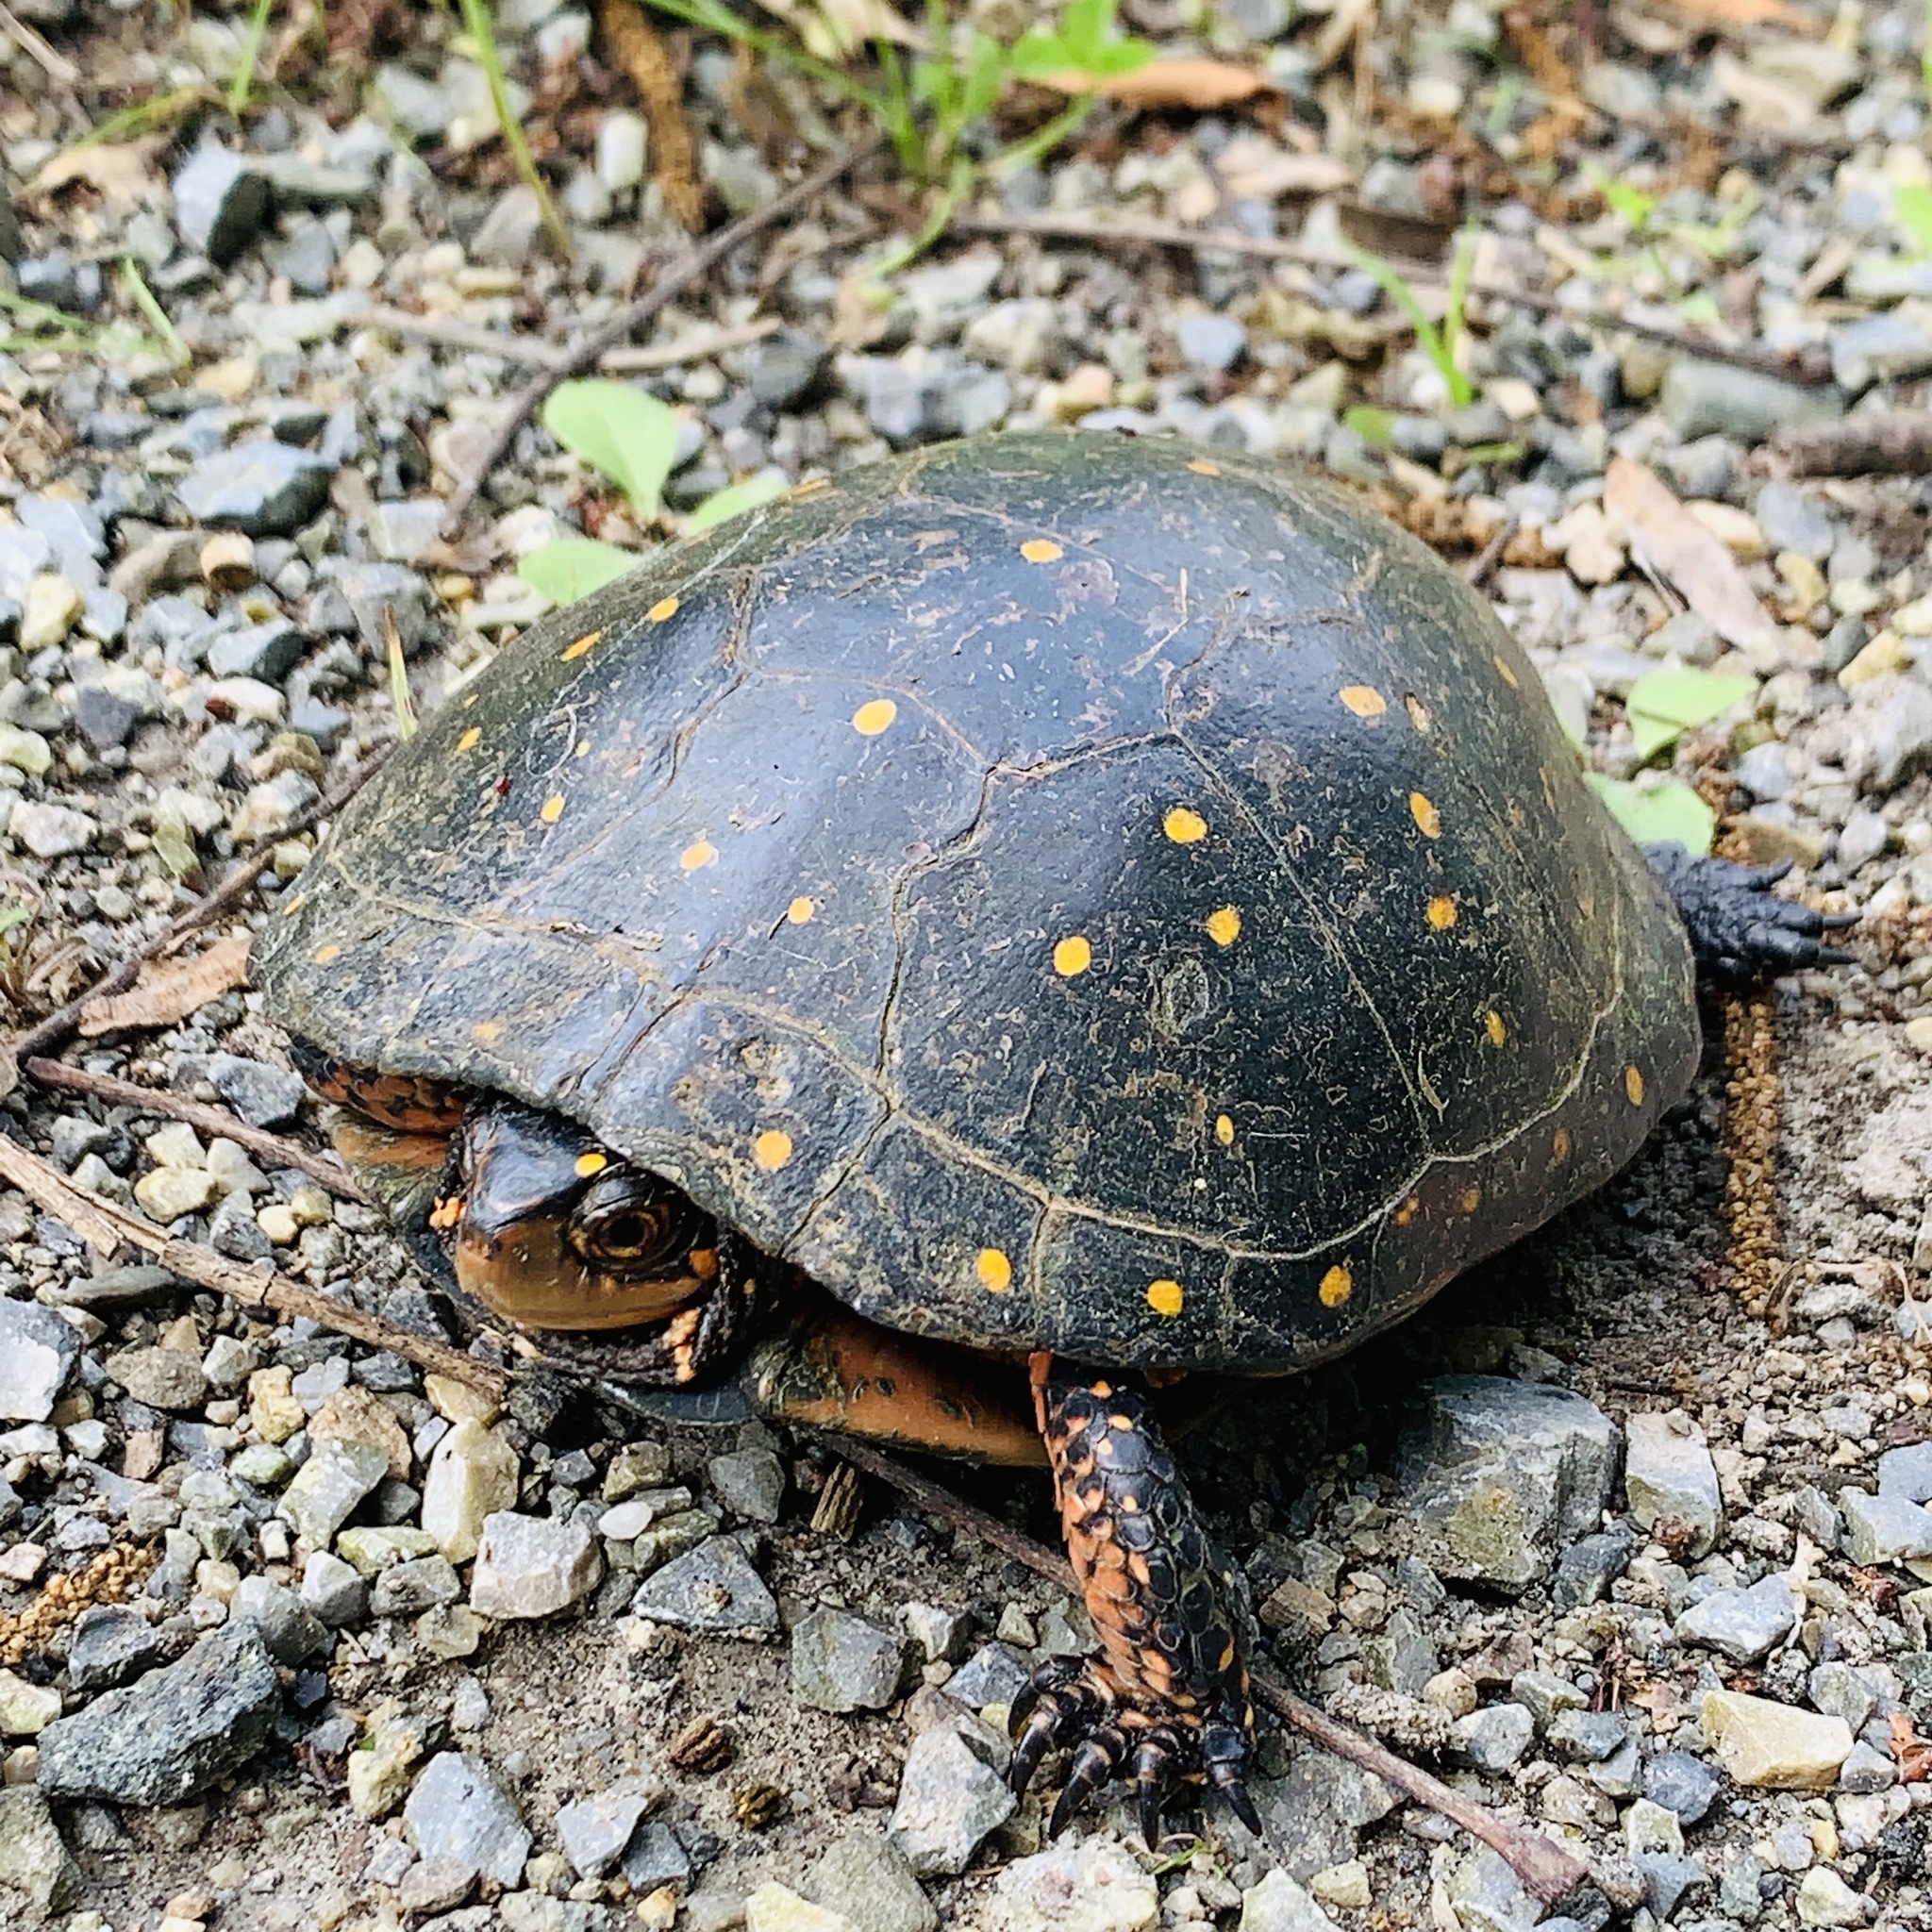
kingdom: Animalia
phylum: Chordata
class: Testudines
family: Emydidae
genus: Clemmys
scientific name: Clemmys guttata
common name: Spotted turtle
